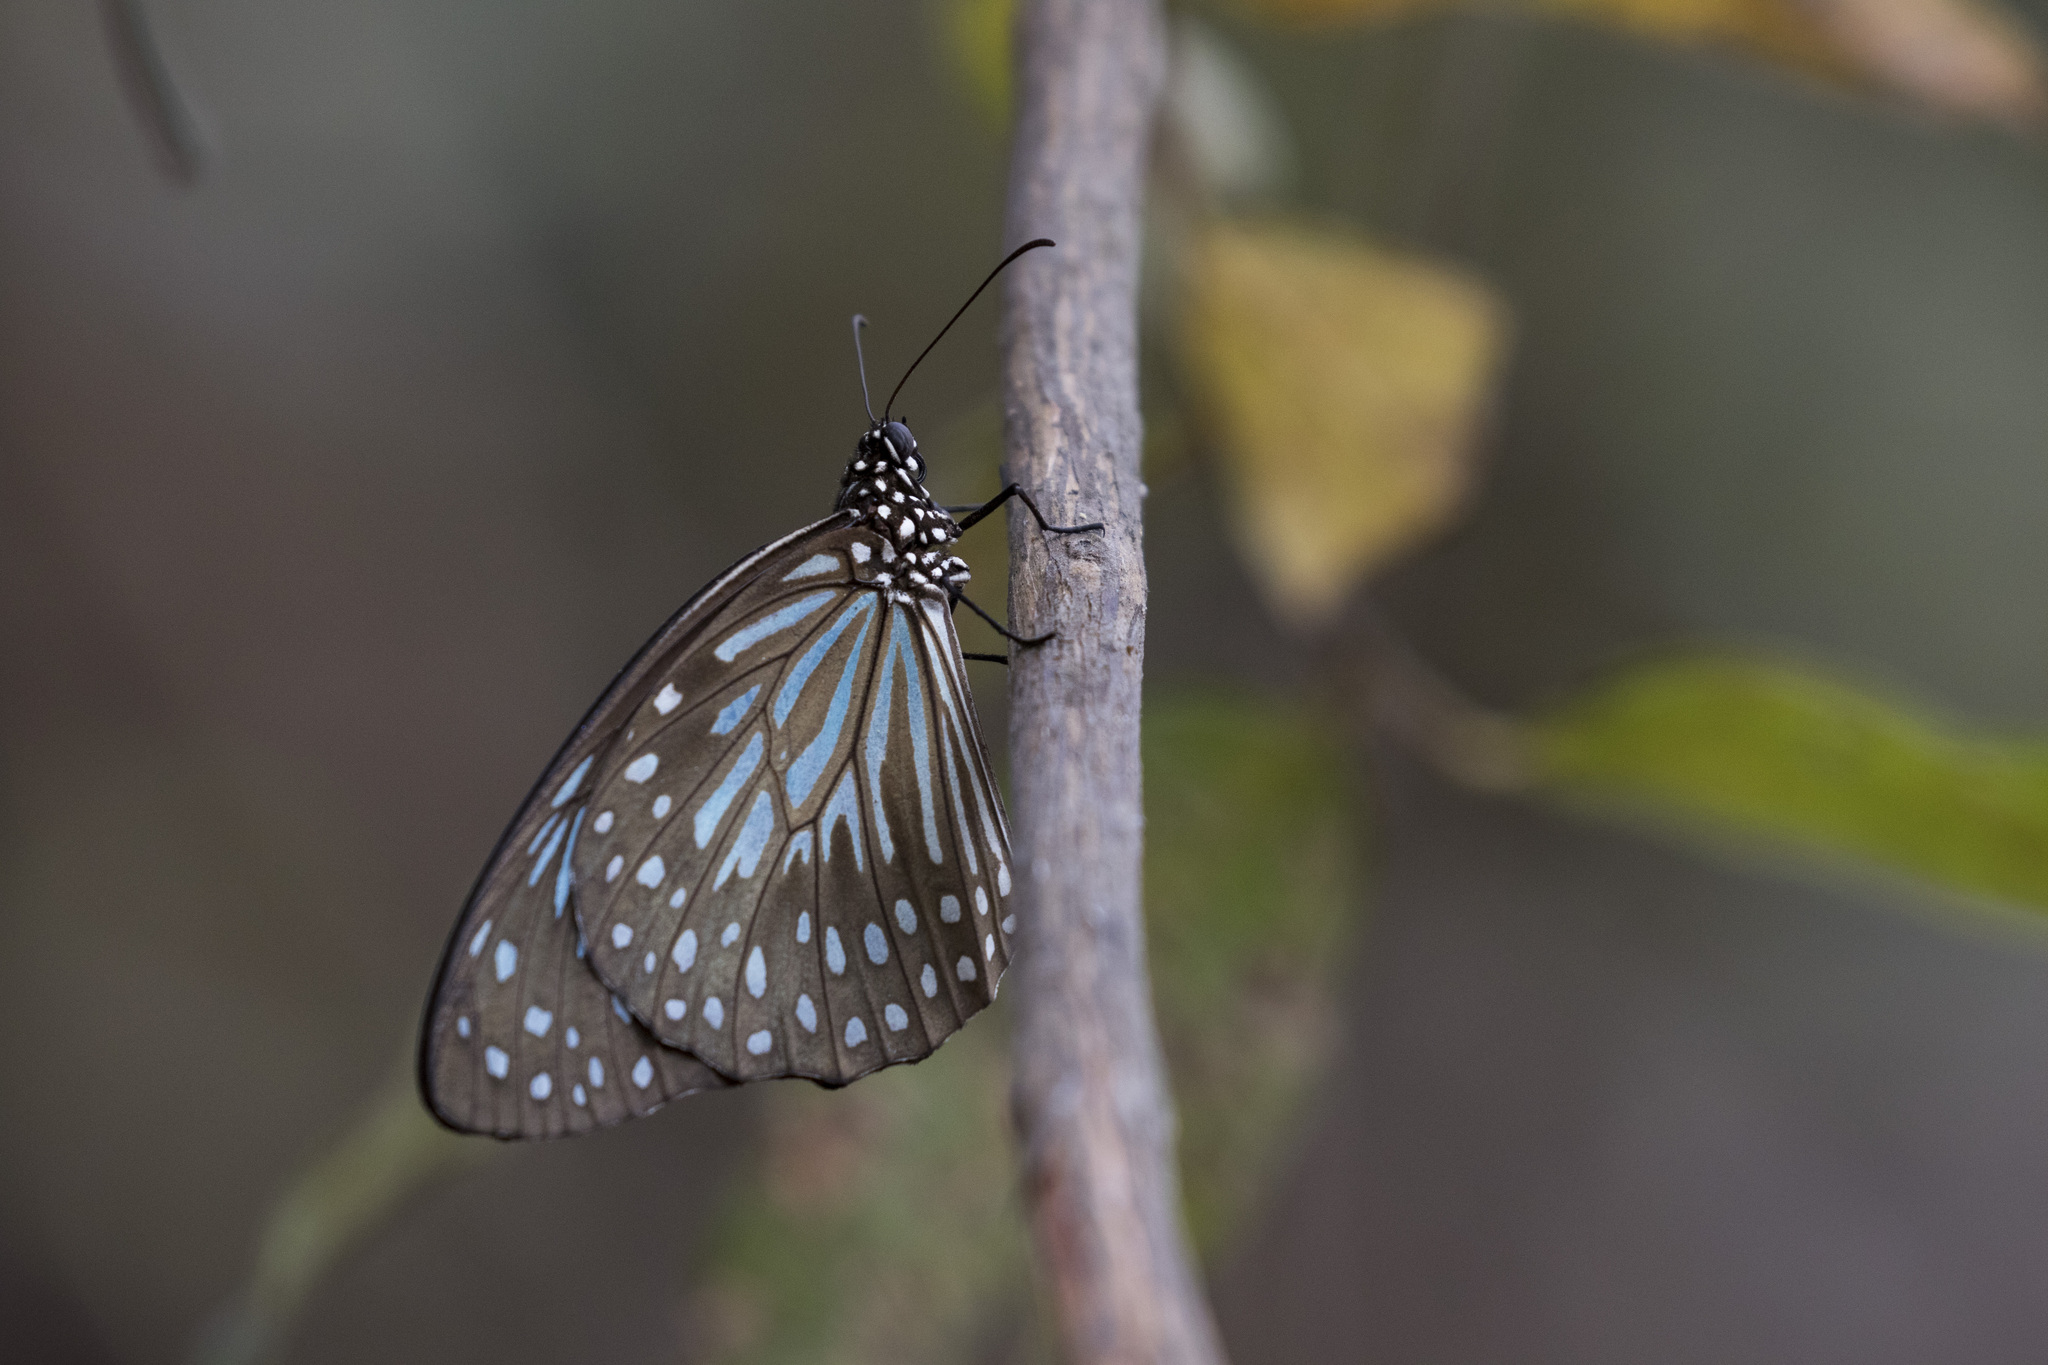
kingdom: Animalia
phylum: Arthropoda
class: Insecta
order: Lepidoptera
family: Nymphalidae
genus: Tirumala
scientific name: Tirumala septentrionis
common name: Dark blue tiger butterfly
